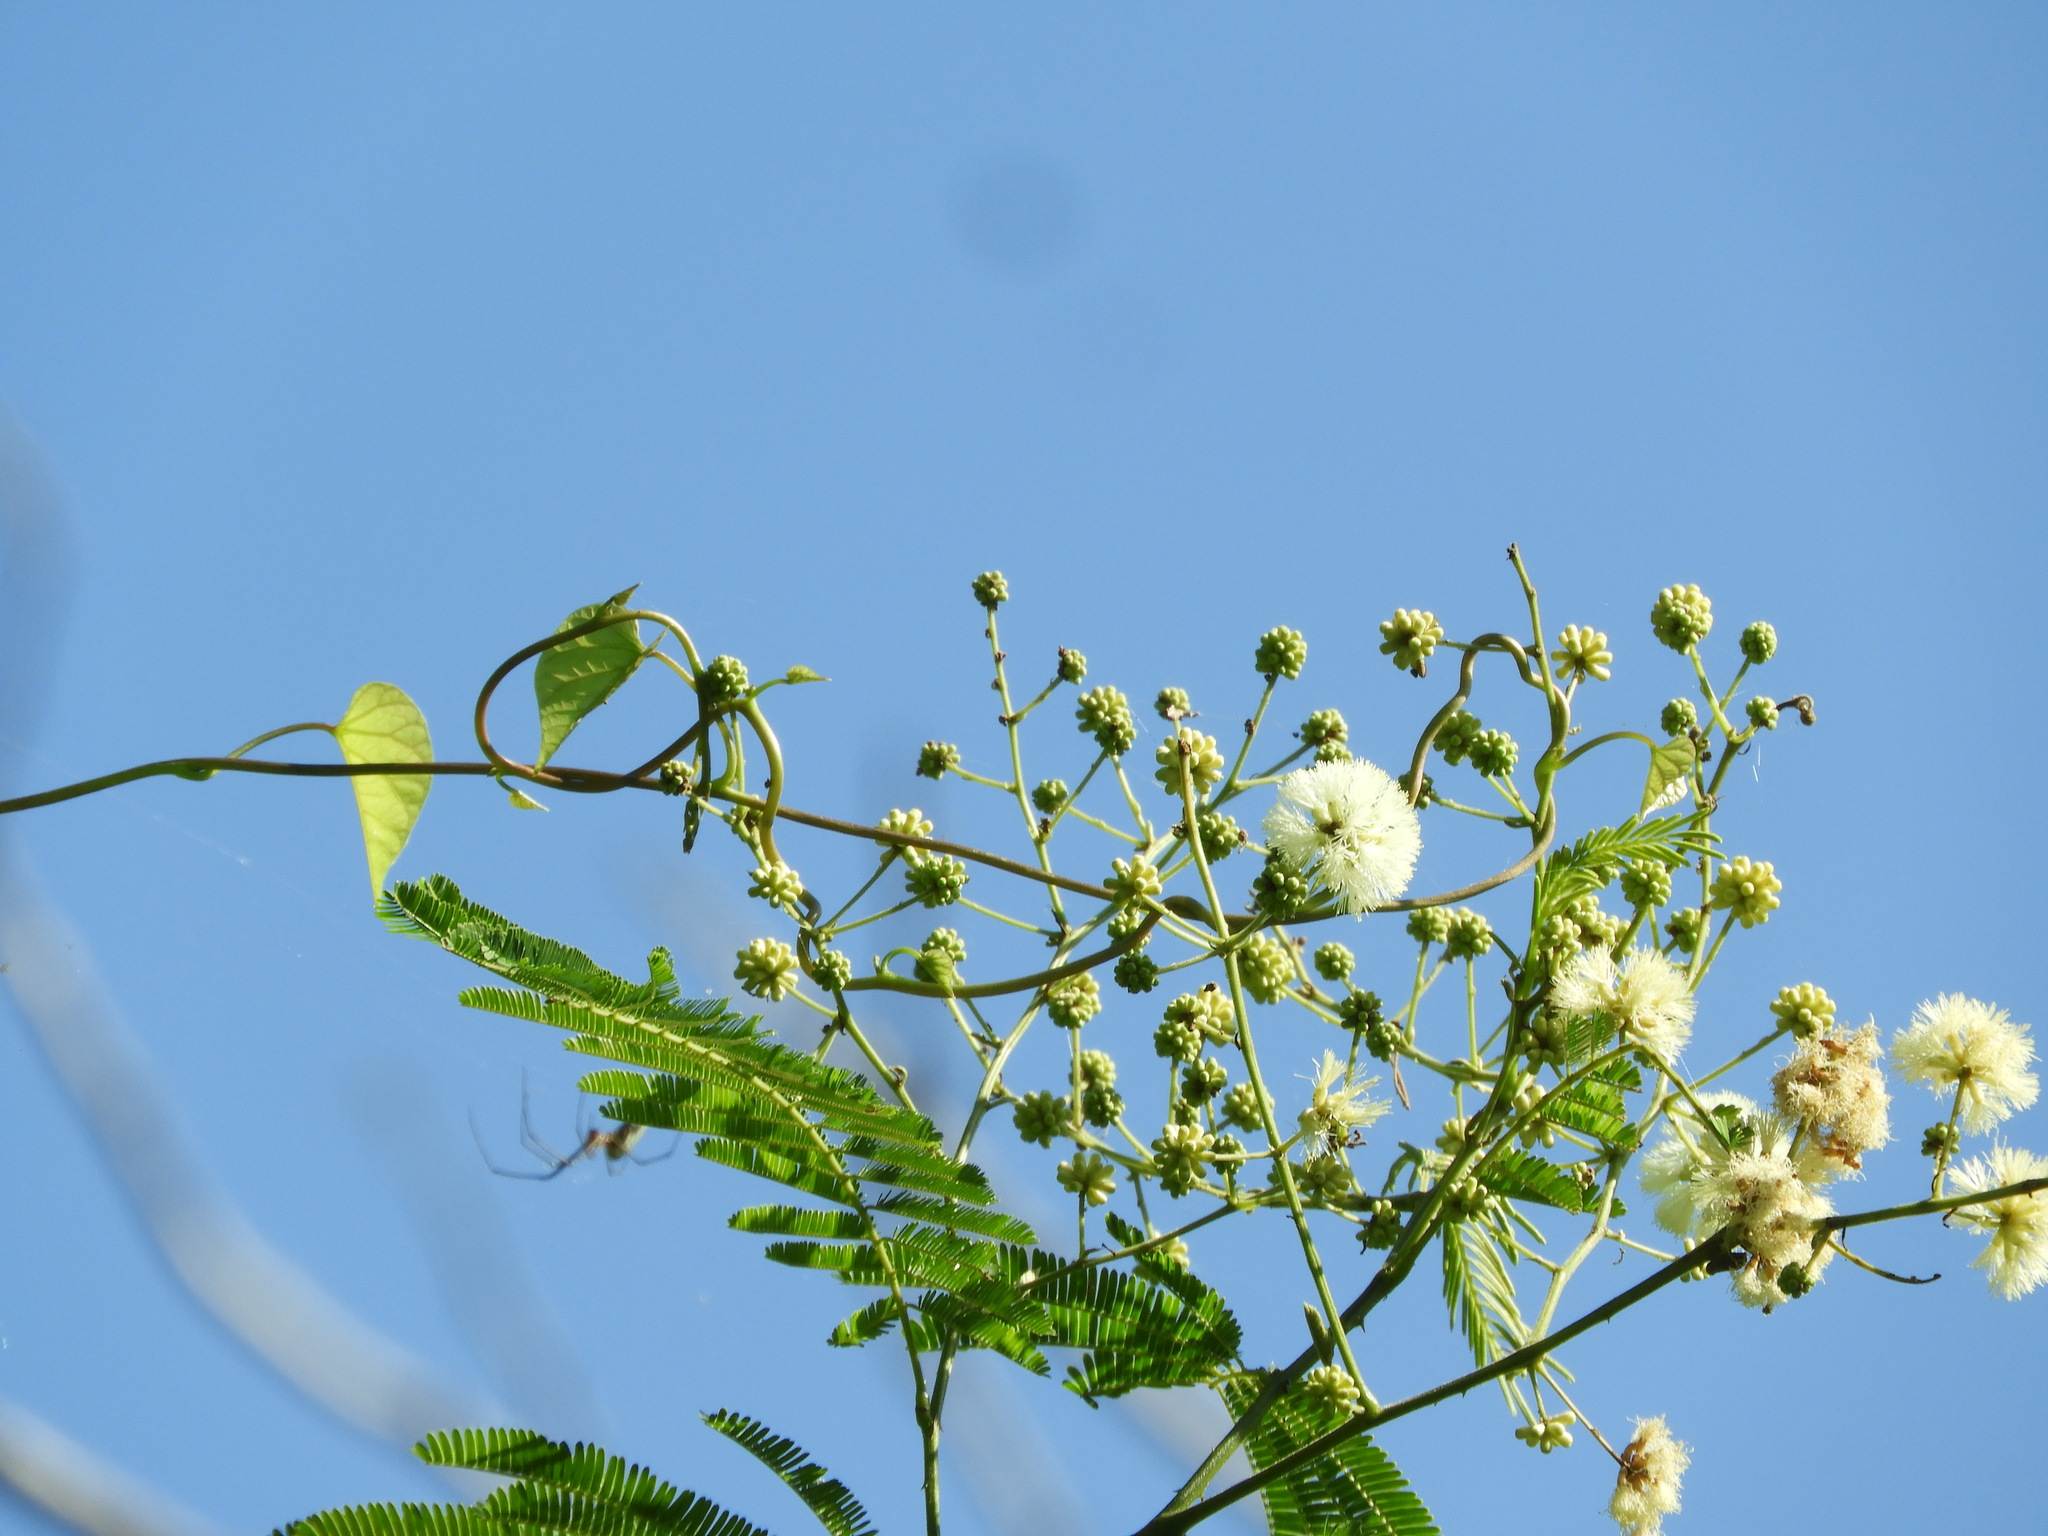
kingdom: Plantae
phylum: Tracheophyta
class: Magnoliopsida
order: Fabales
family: Fabaceae
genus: Leucaena
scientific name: Leucaena leucocephala
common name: White leadtree
